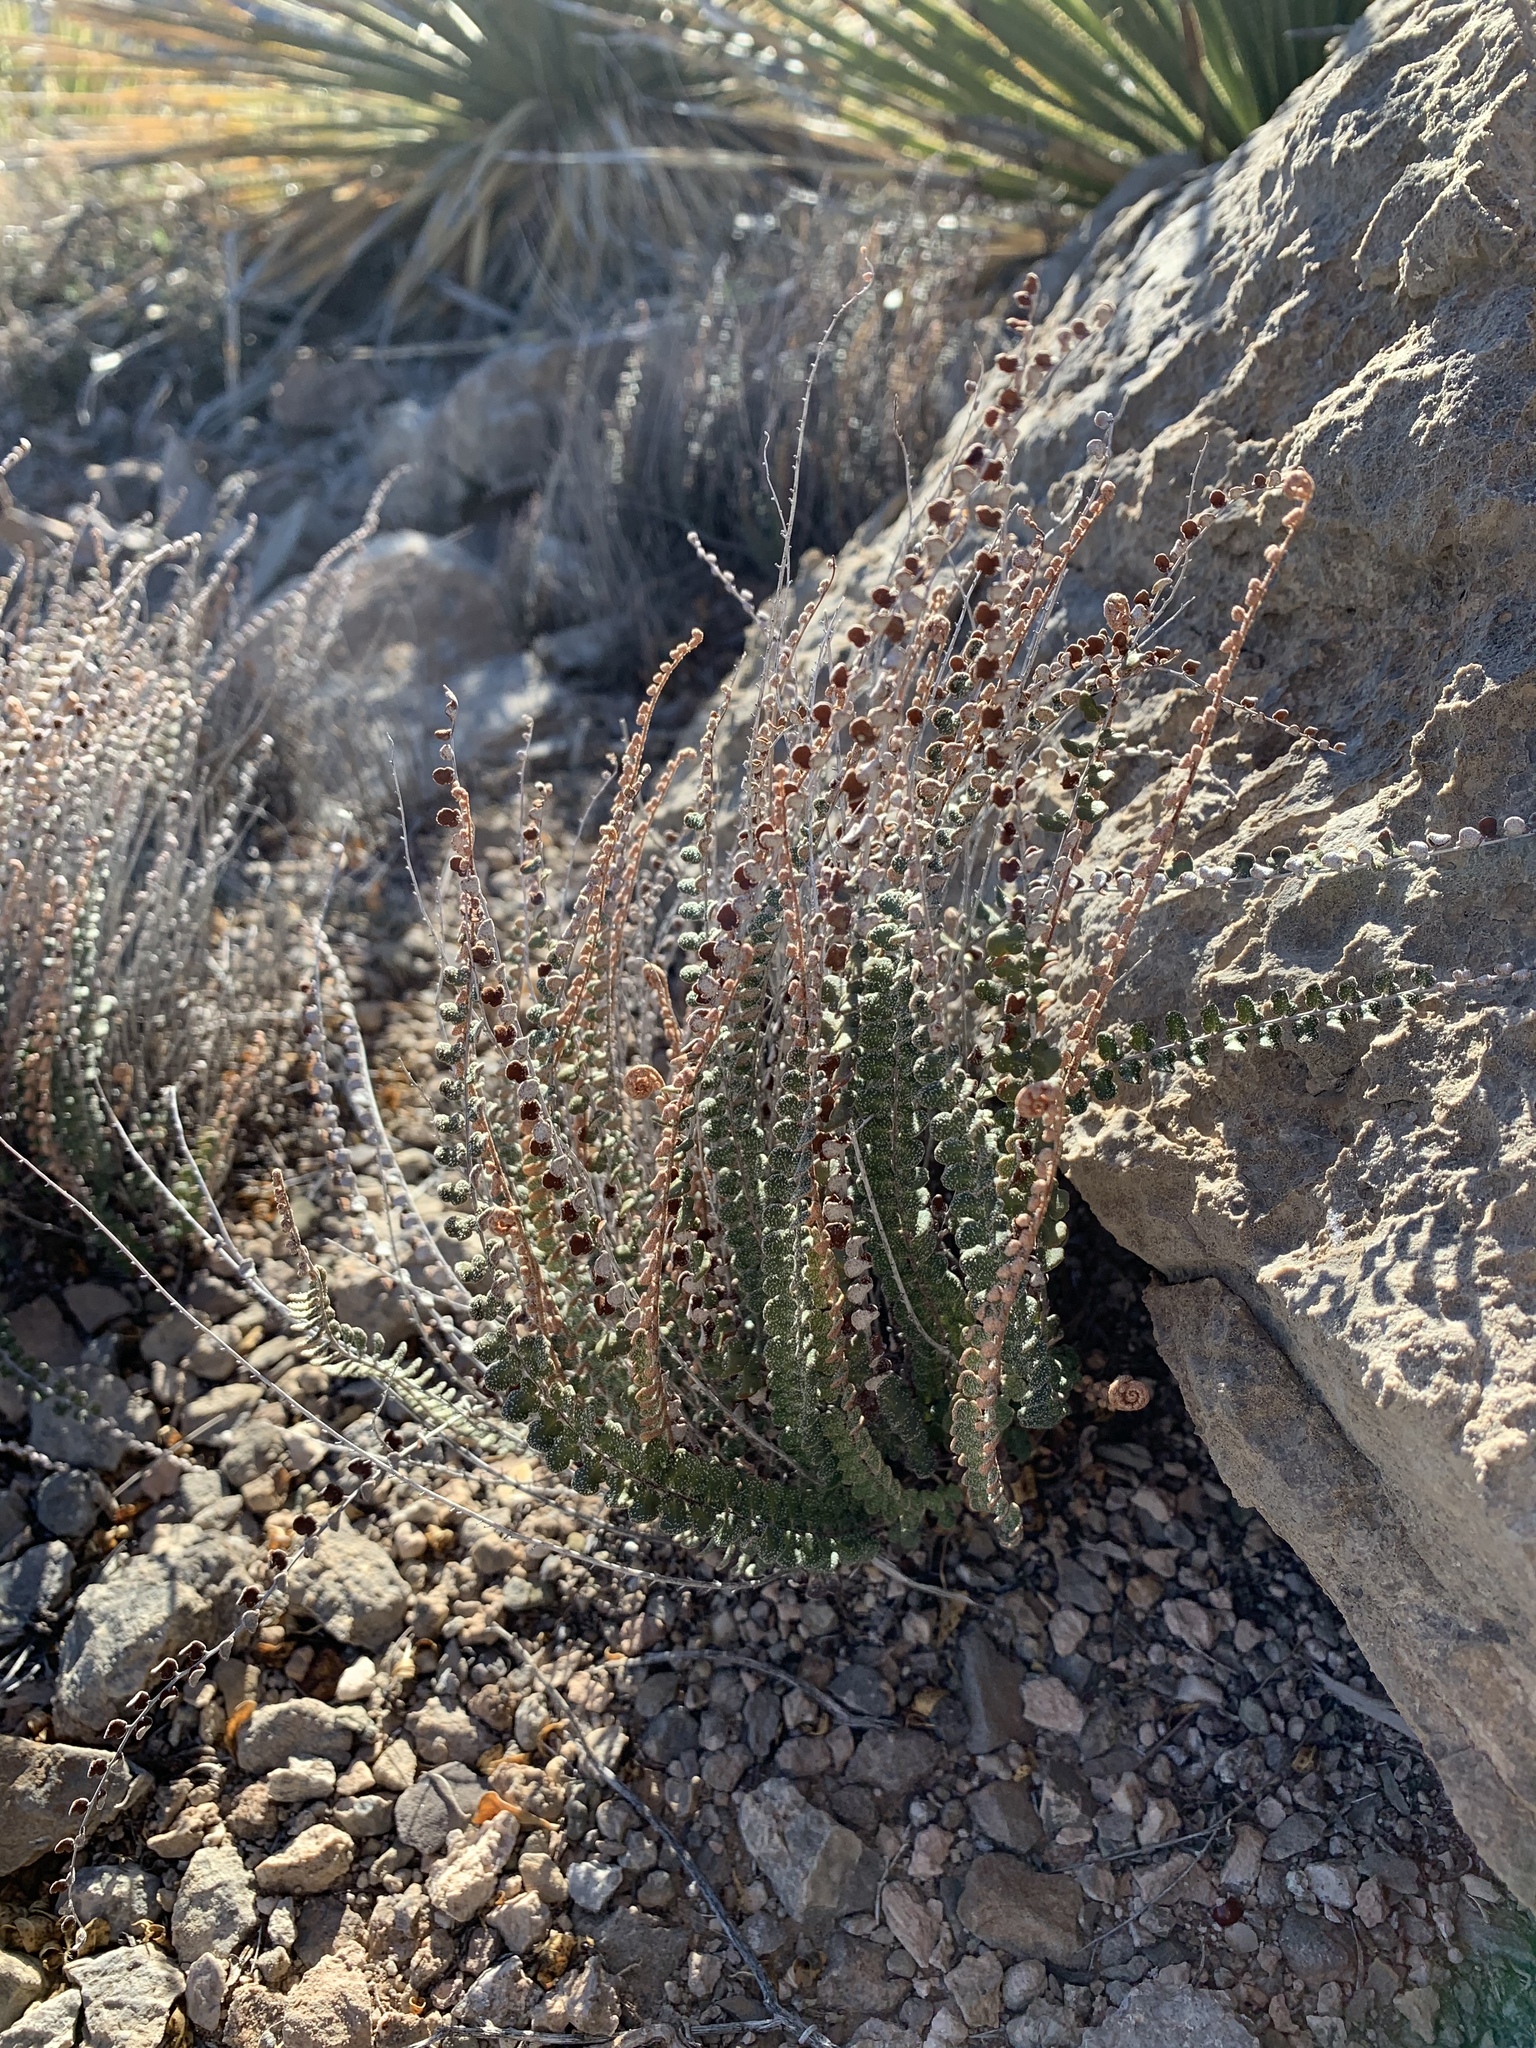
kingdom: Plantae
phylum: Tracheophyta
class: Polypodiopsida
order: Polypodiales
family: Pteridaceae
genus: Astrolepis
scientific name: Astrolepis cochisensis
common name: Scaly cloak fern
